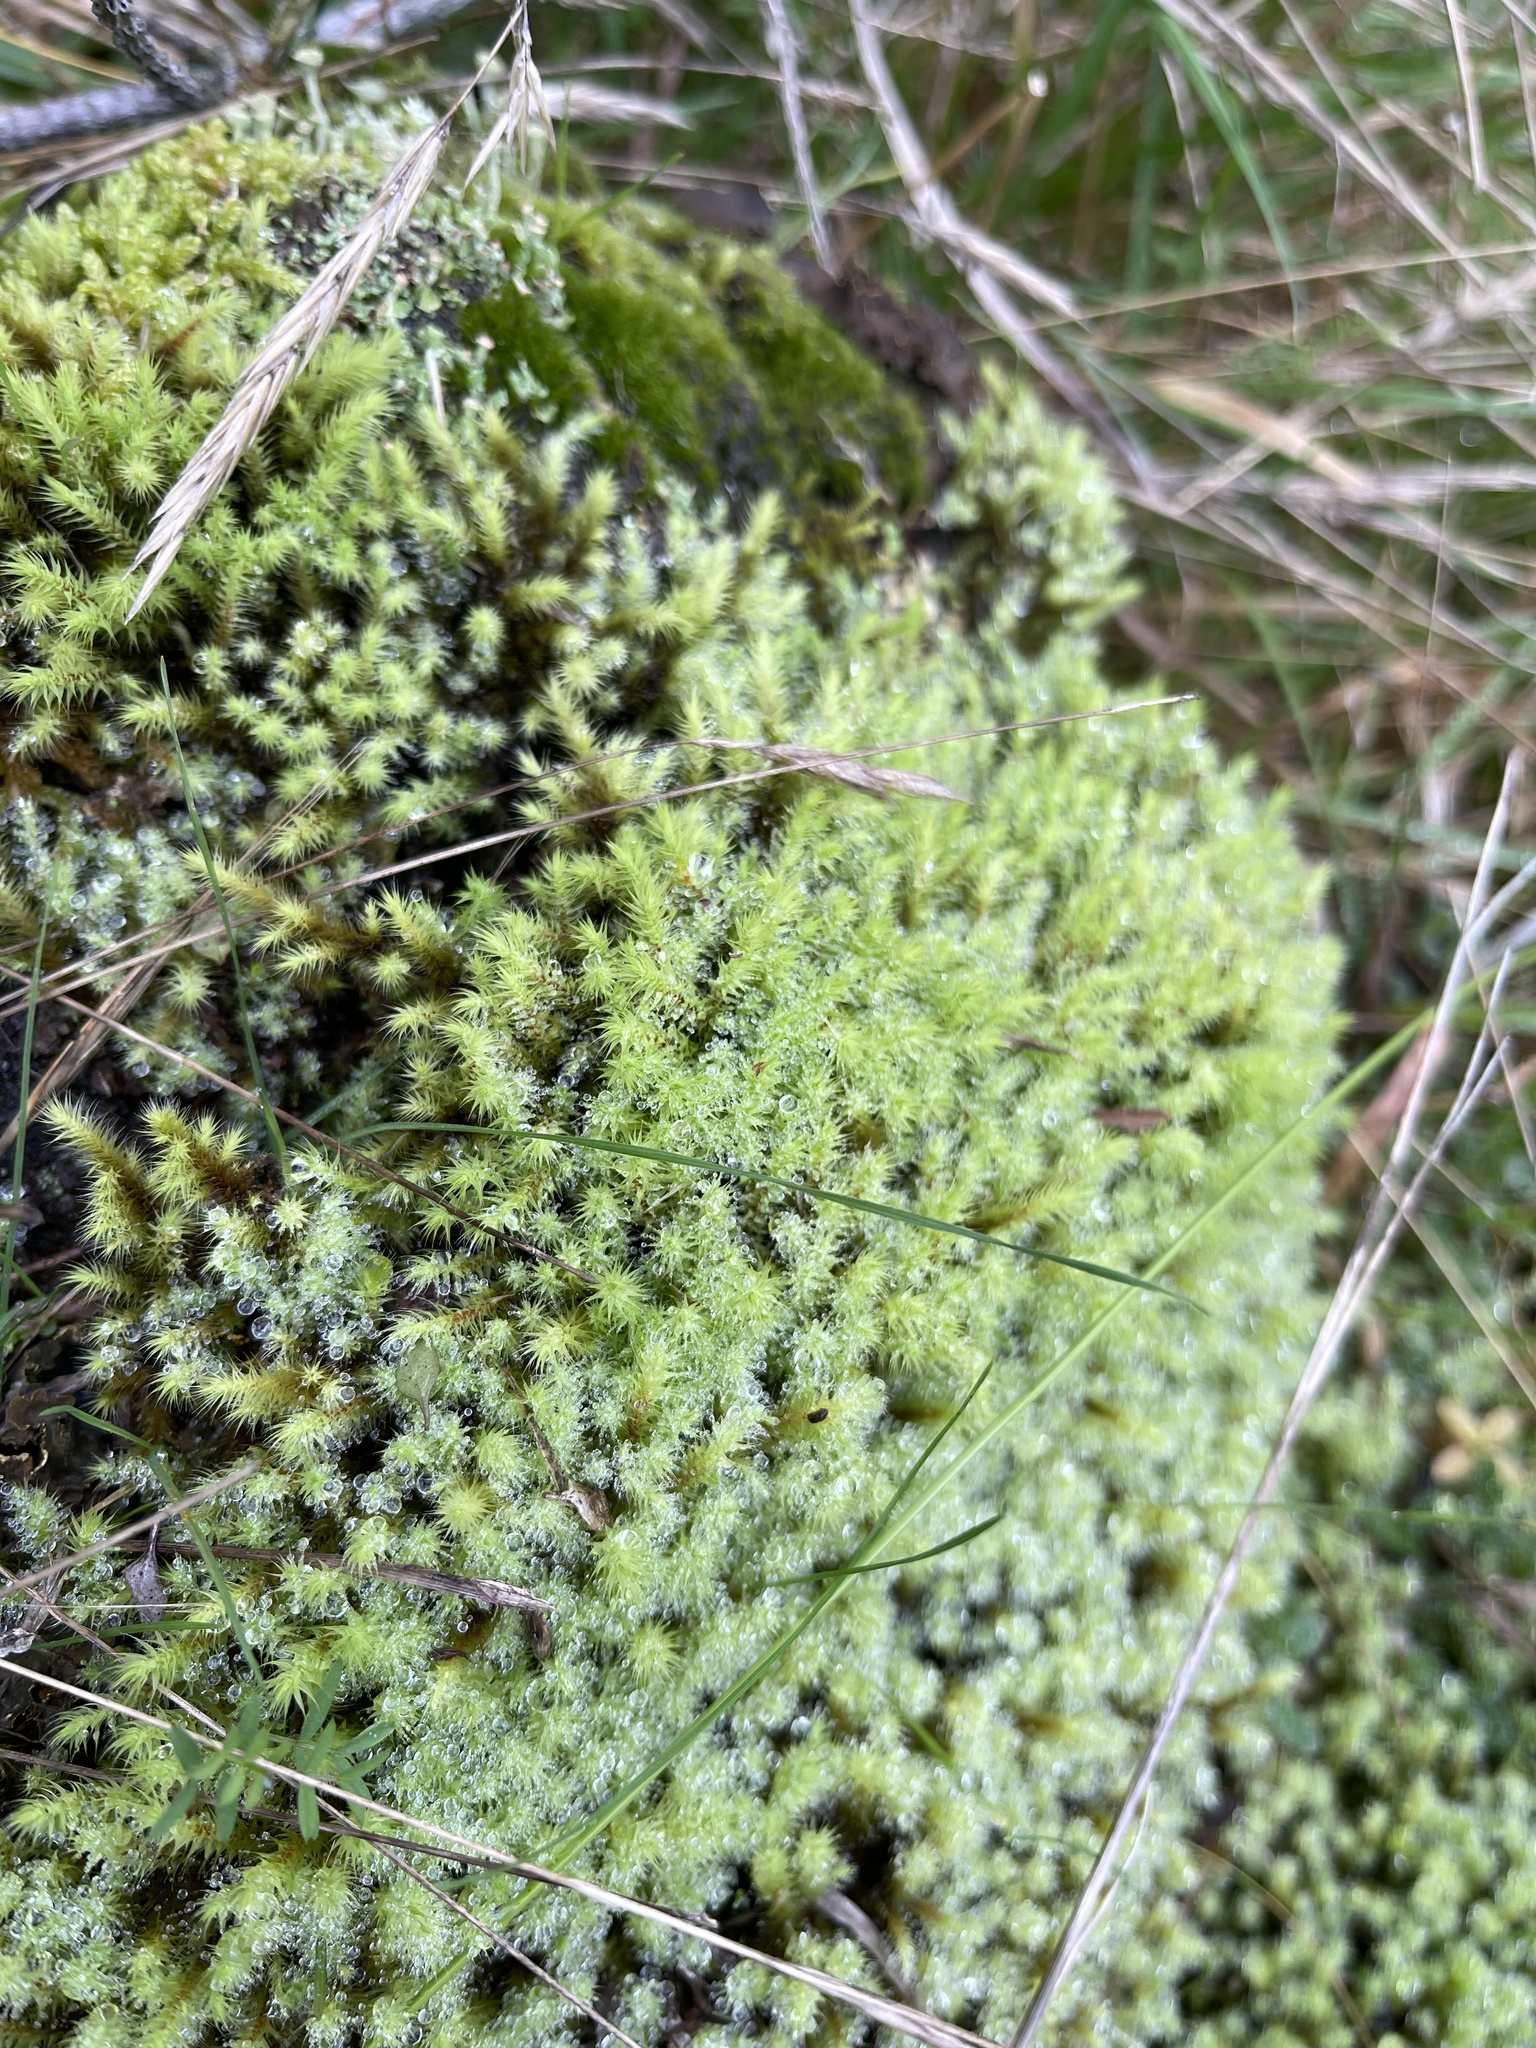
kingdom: Plantae
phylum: Bryophyta
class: Bryopsida
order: Bartramiales
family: Bartramiaceae
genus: Breutelia
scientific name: Breutelia affinis
